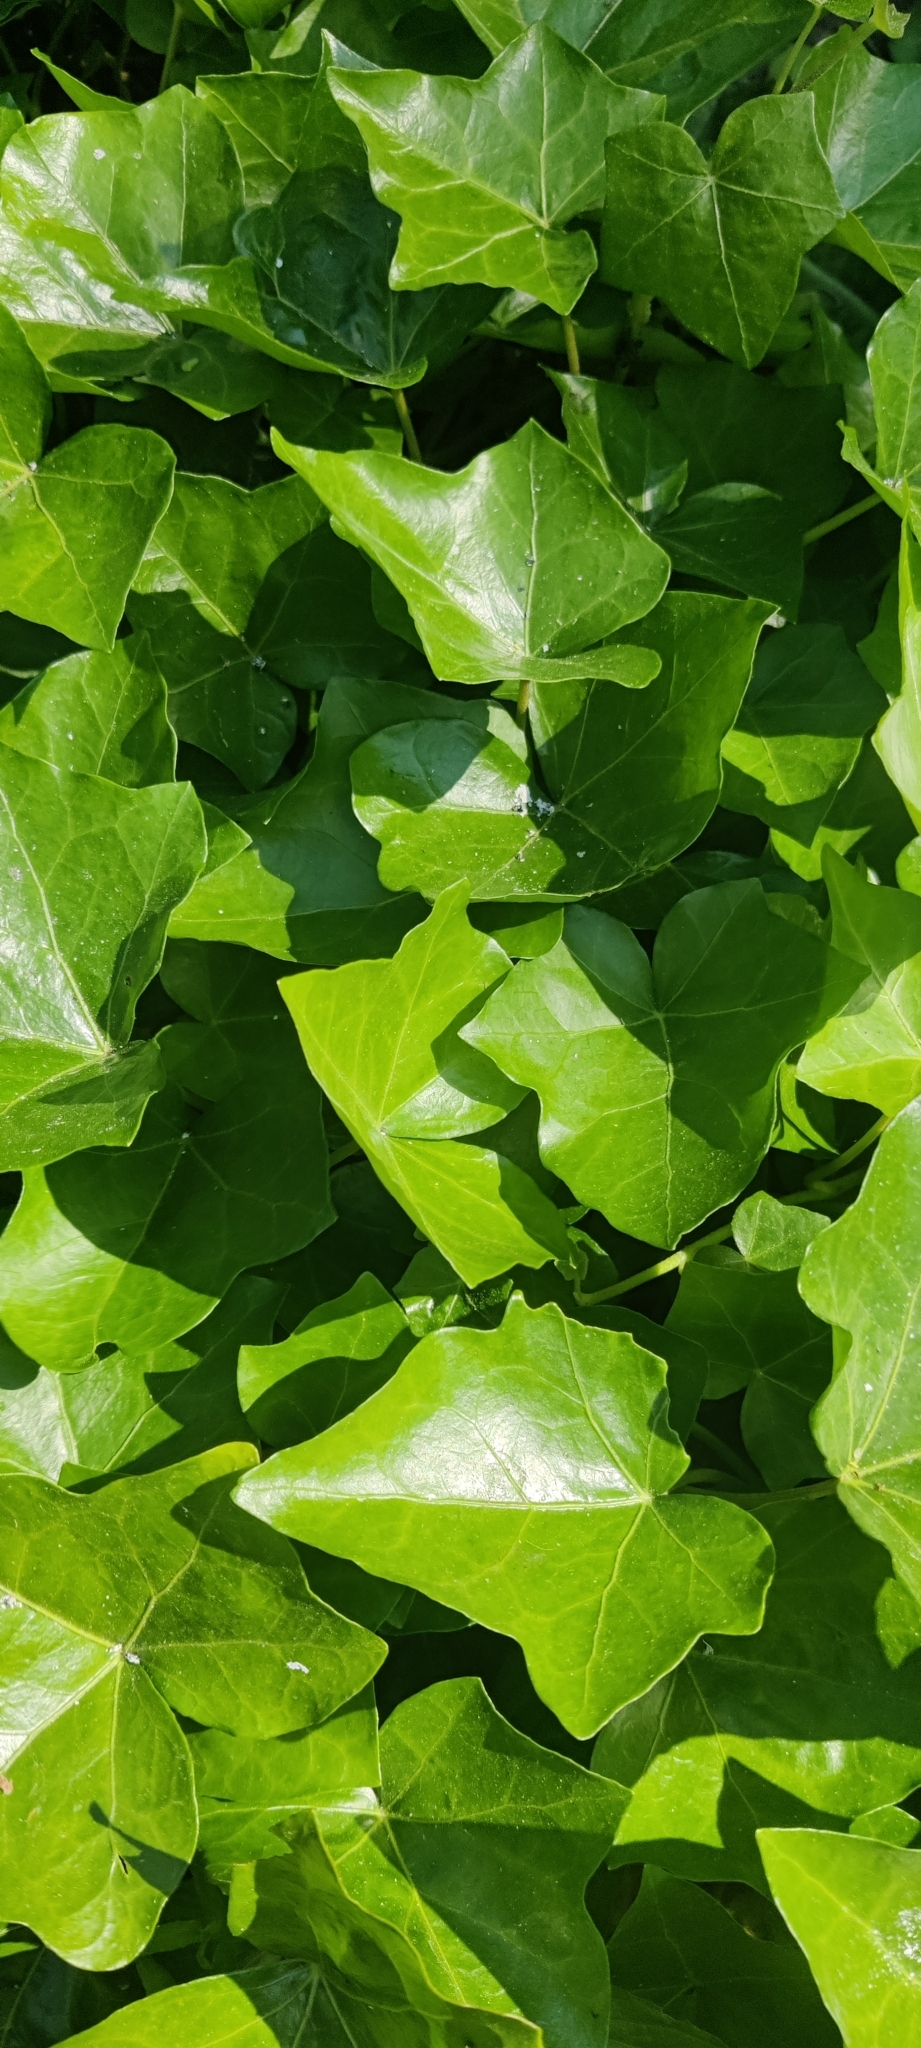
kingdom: Plantae
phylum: Tracheophyta
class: Magnoliopsida
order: Apiales
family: Araliaceae
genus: Hedera
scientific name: Hedera helix
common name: Ivy
